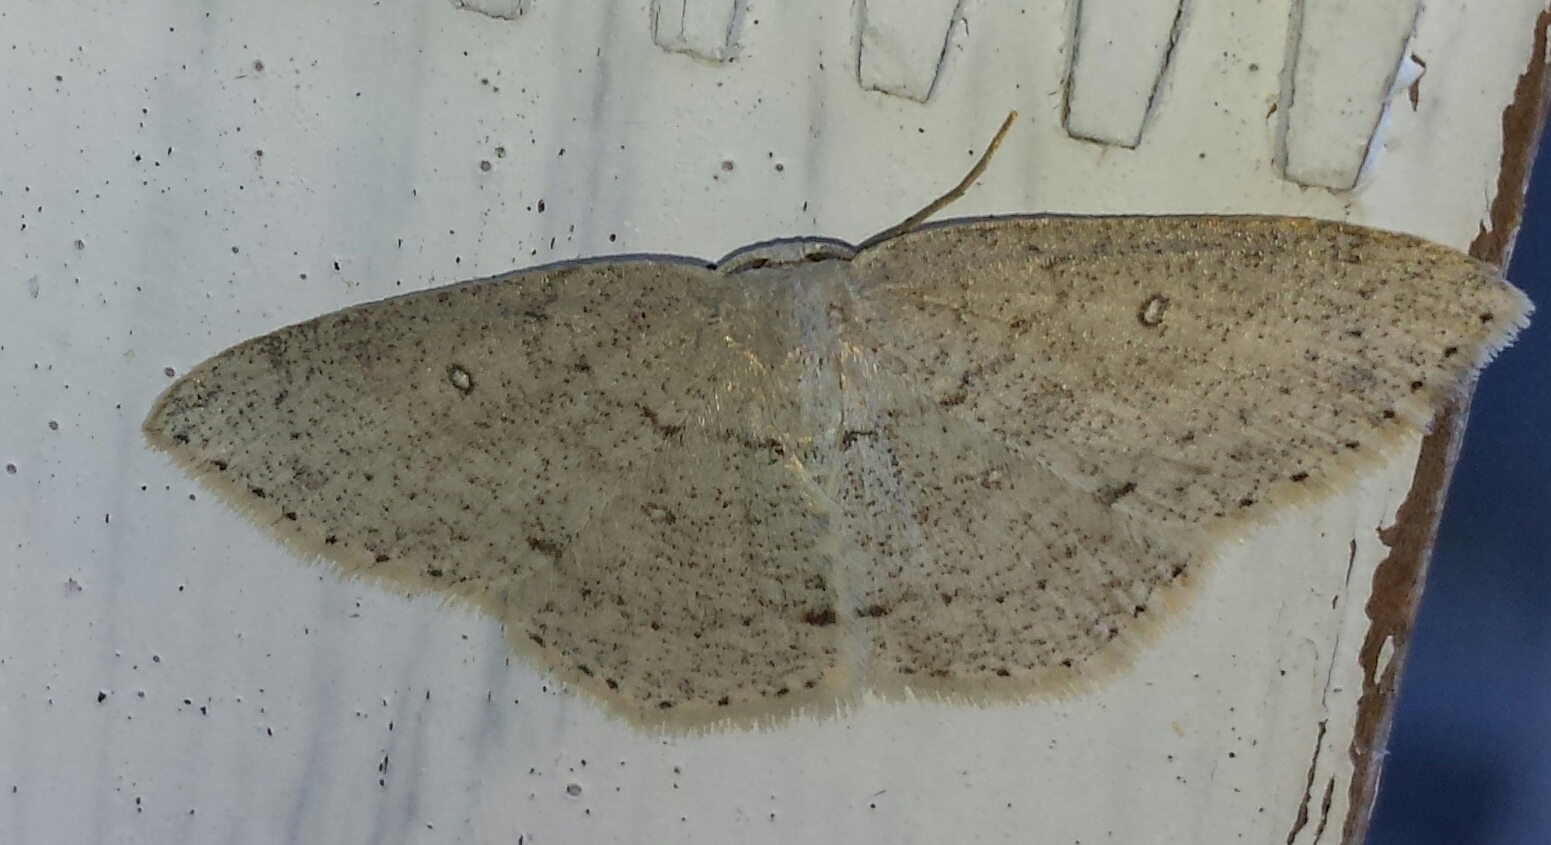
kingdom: Animalia
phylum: Arthropoda
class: Insecta
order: Lepidoptera
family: Geometridae
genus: Cyclophora
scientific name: Cyclophora pendulinaria
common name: Sweet fern geometer
